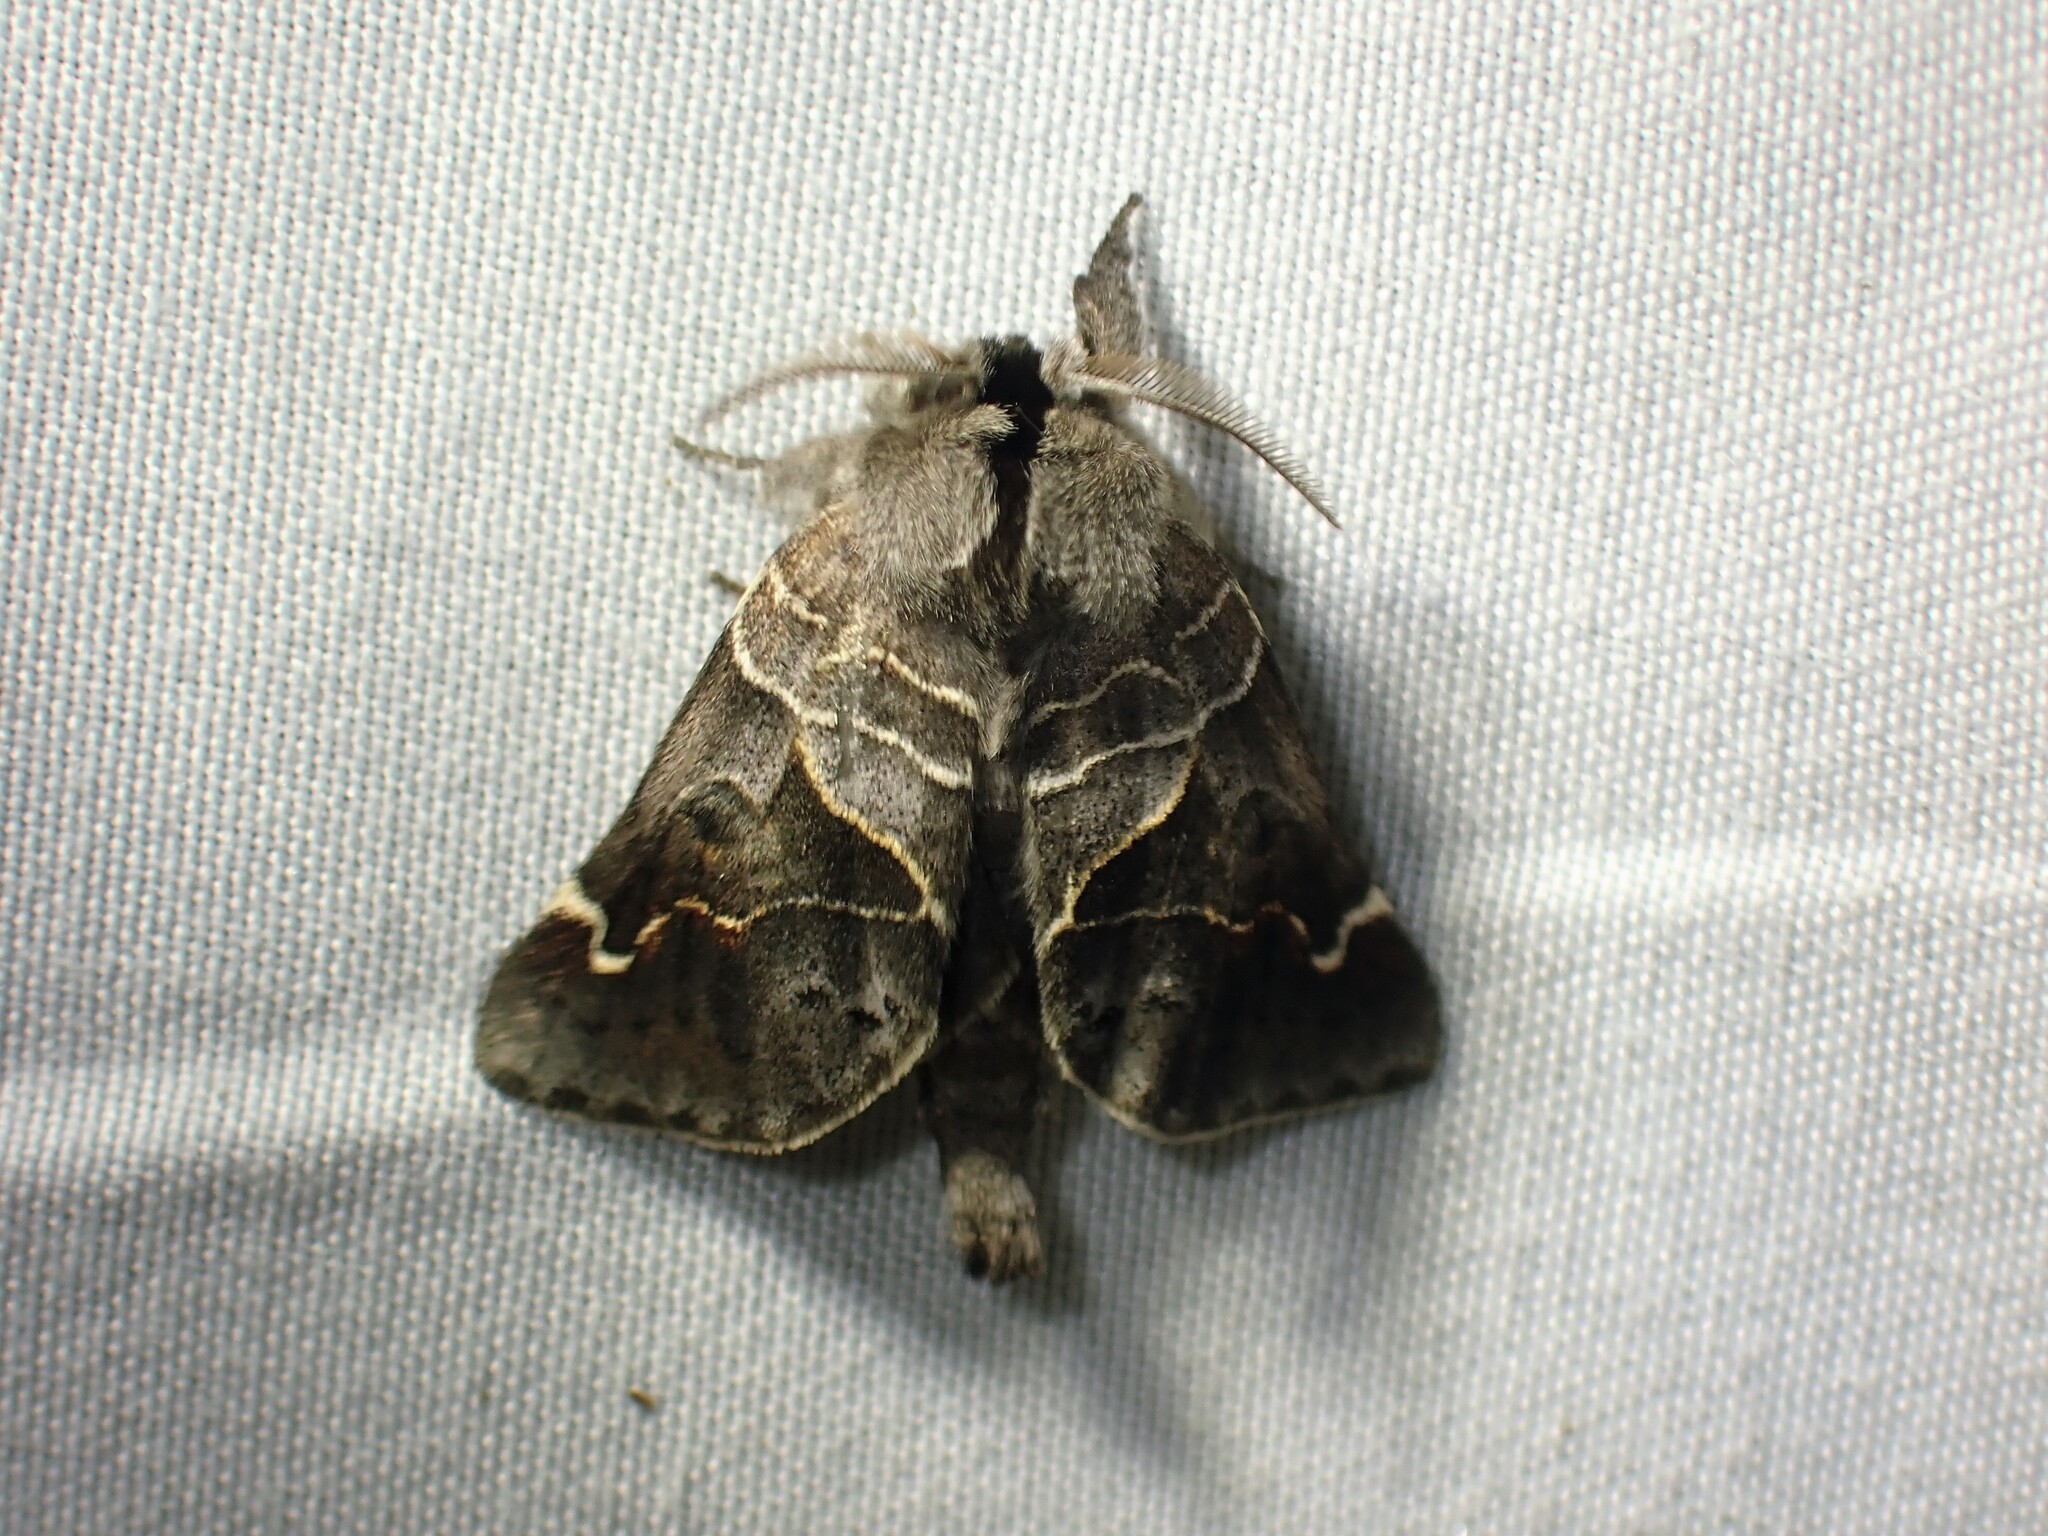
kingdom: Animalia
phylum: Arthropoda
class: Insecta
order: Lepidoptera
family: Notodontidae
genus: Clostera
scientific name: Clostera apicalis
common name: Apical prominent
